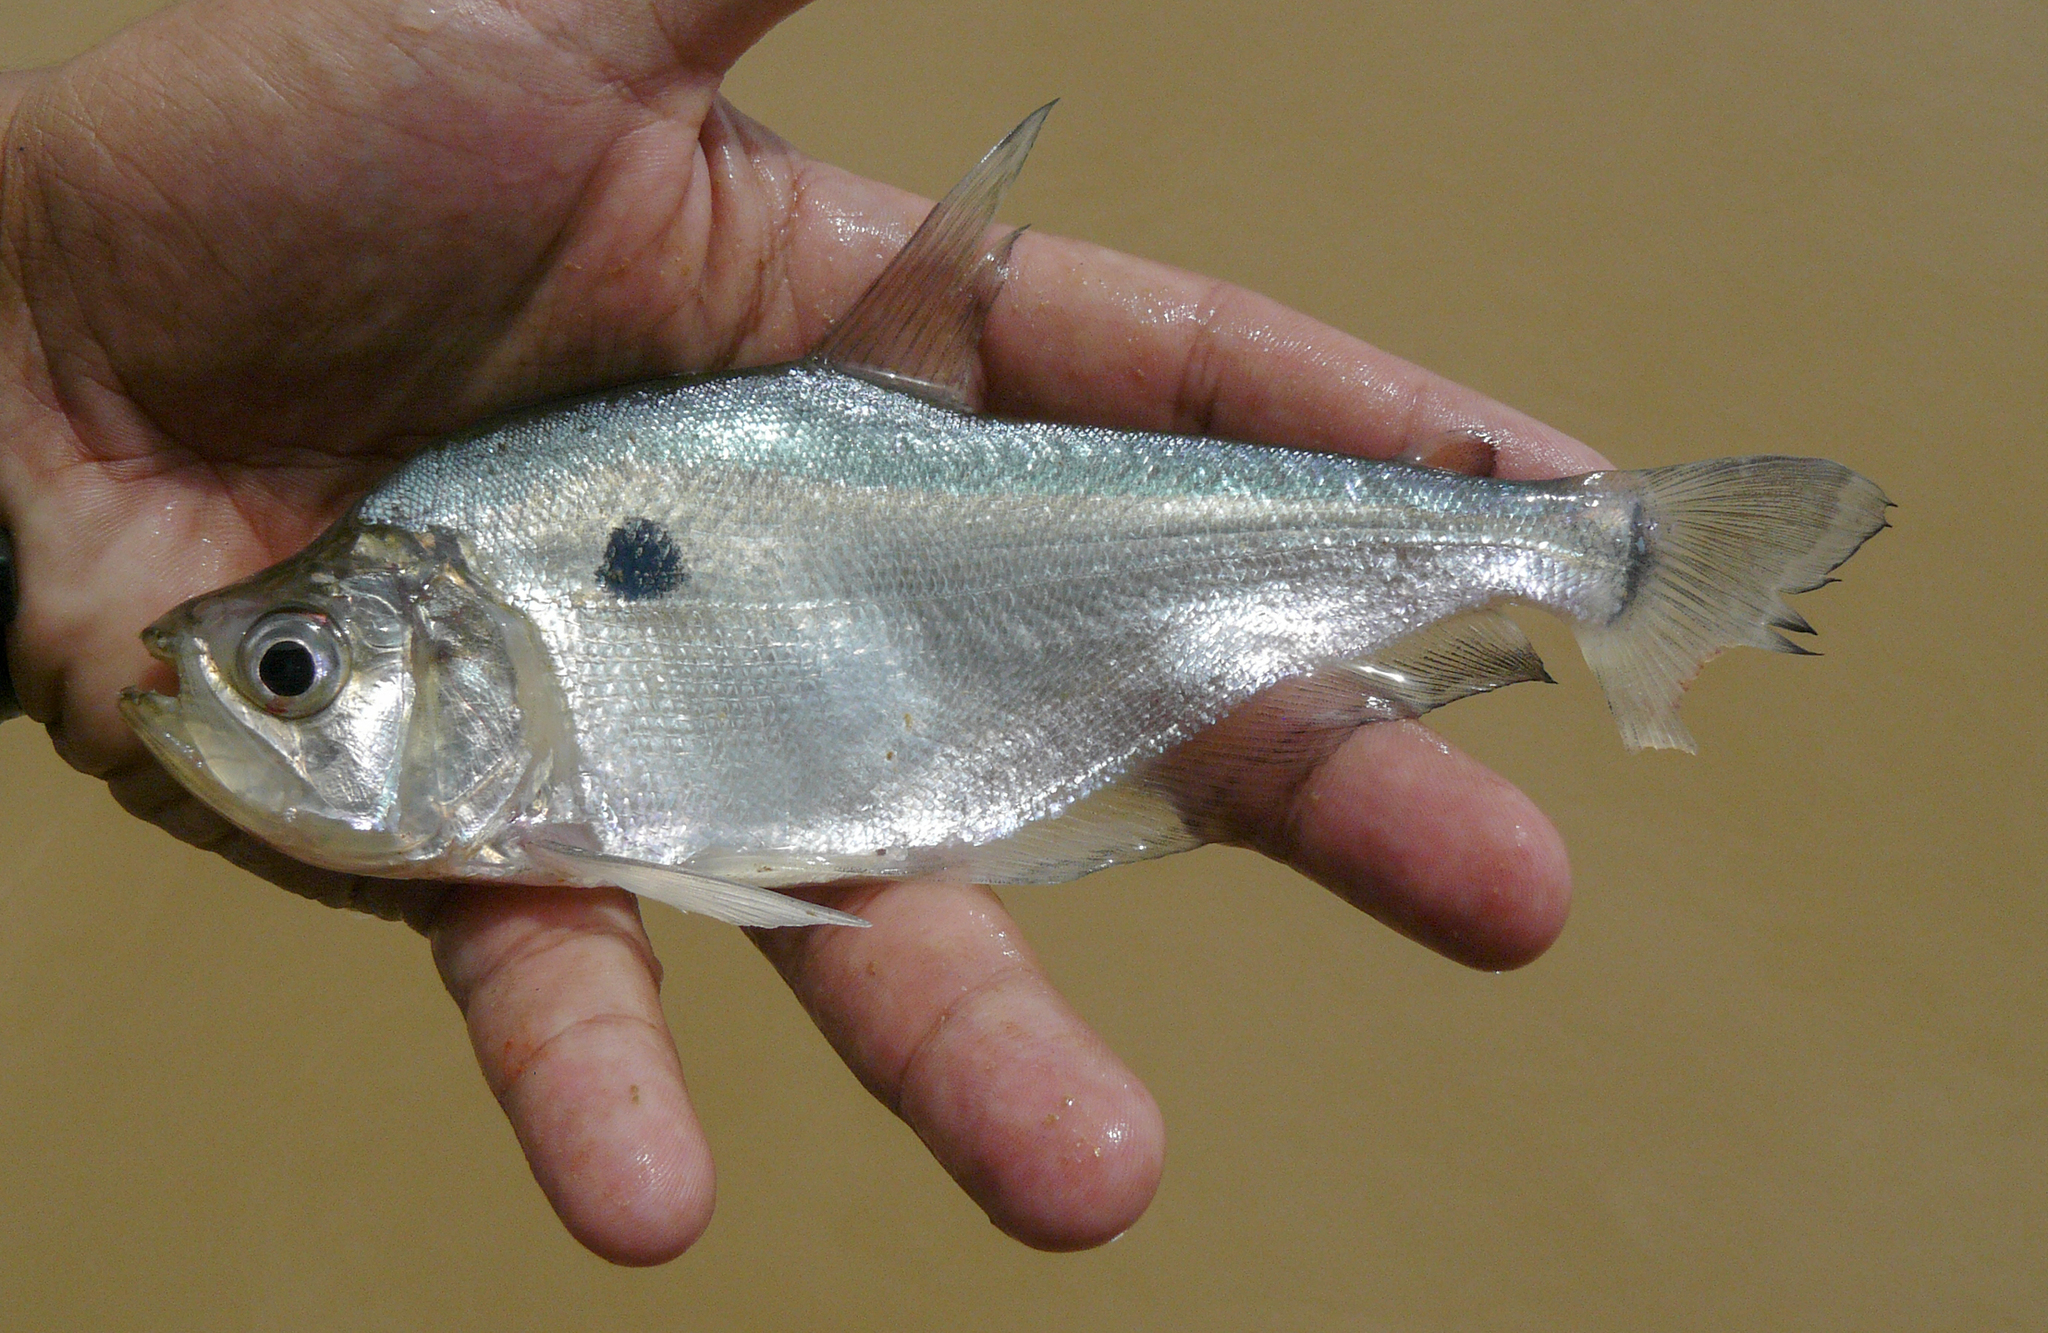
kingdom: Animalia
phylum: Chordata
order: Characiformes
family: Characidae
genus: Roeboides
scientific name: Roeboides myersii
